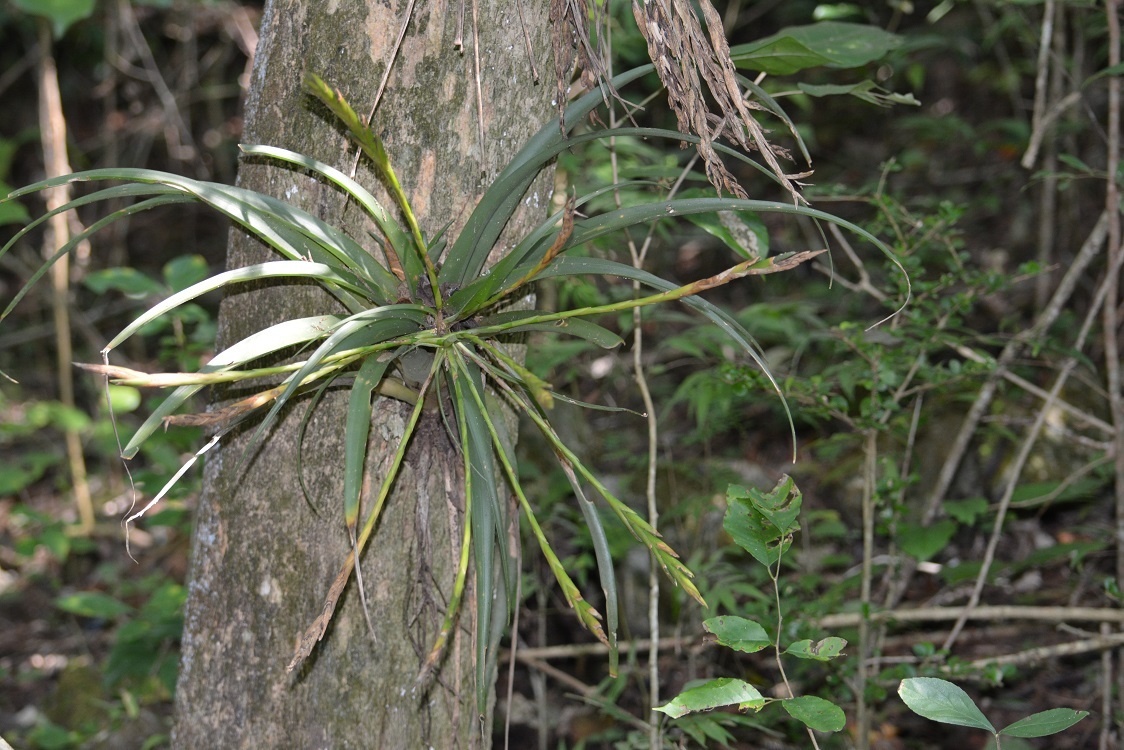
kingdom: Plantae
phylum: Tracheophyta
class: Liliopsida
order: Poales
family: Bromeliaceae
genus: Tillandsia
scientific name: Tillandsia flabellata
